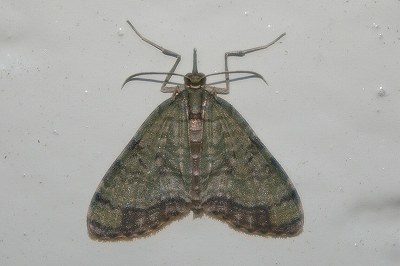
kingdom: Animalia
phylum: Arthropoda
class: Insecta
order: Lepidoptera
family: Geometridae
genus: Episteira
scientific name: Episteira nigrilinearia
